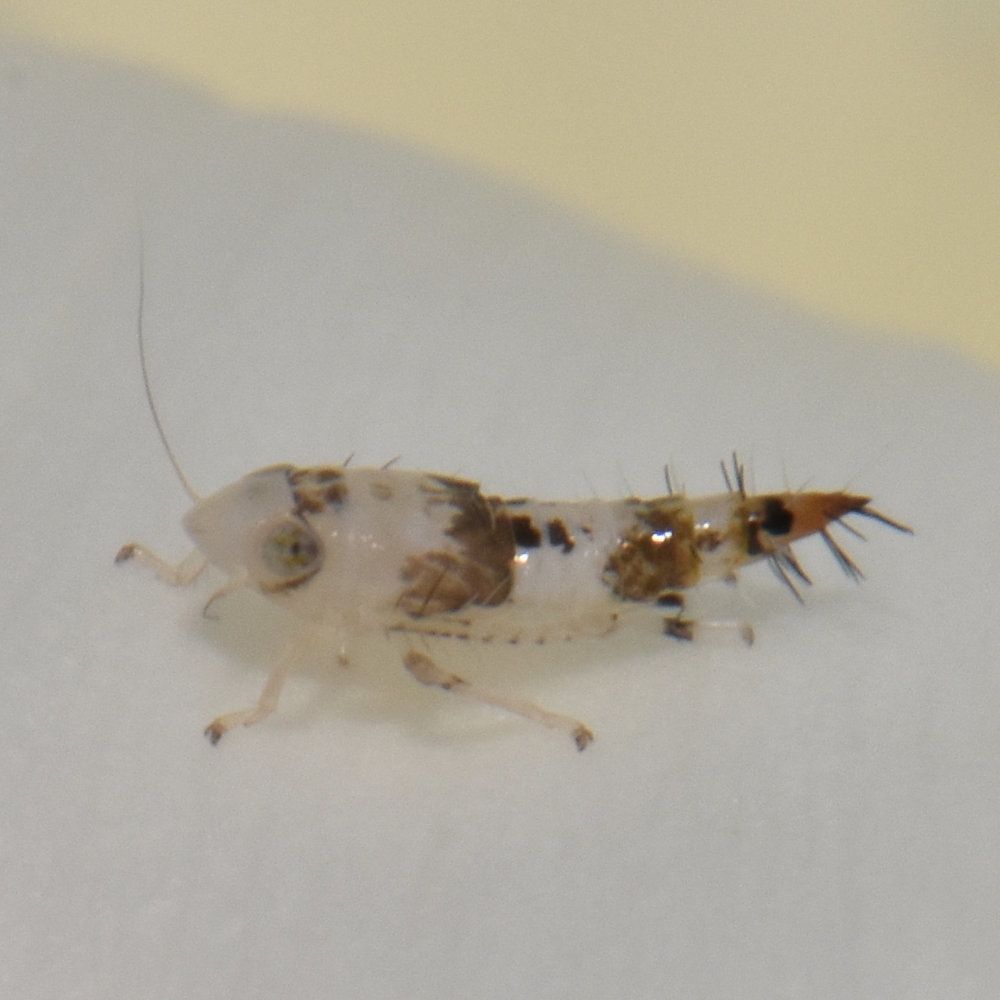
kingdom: Animalia
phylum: Arthropoda
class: Insecta
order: Hemiptera
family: Cicadellidae
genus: Scaphoideus
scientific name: Scaphoideus titanus
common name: American grapevine leafhopper
